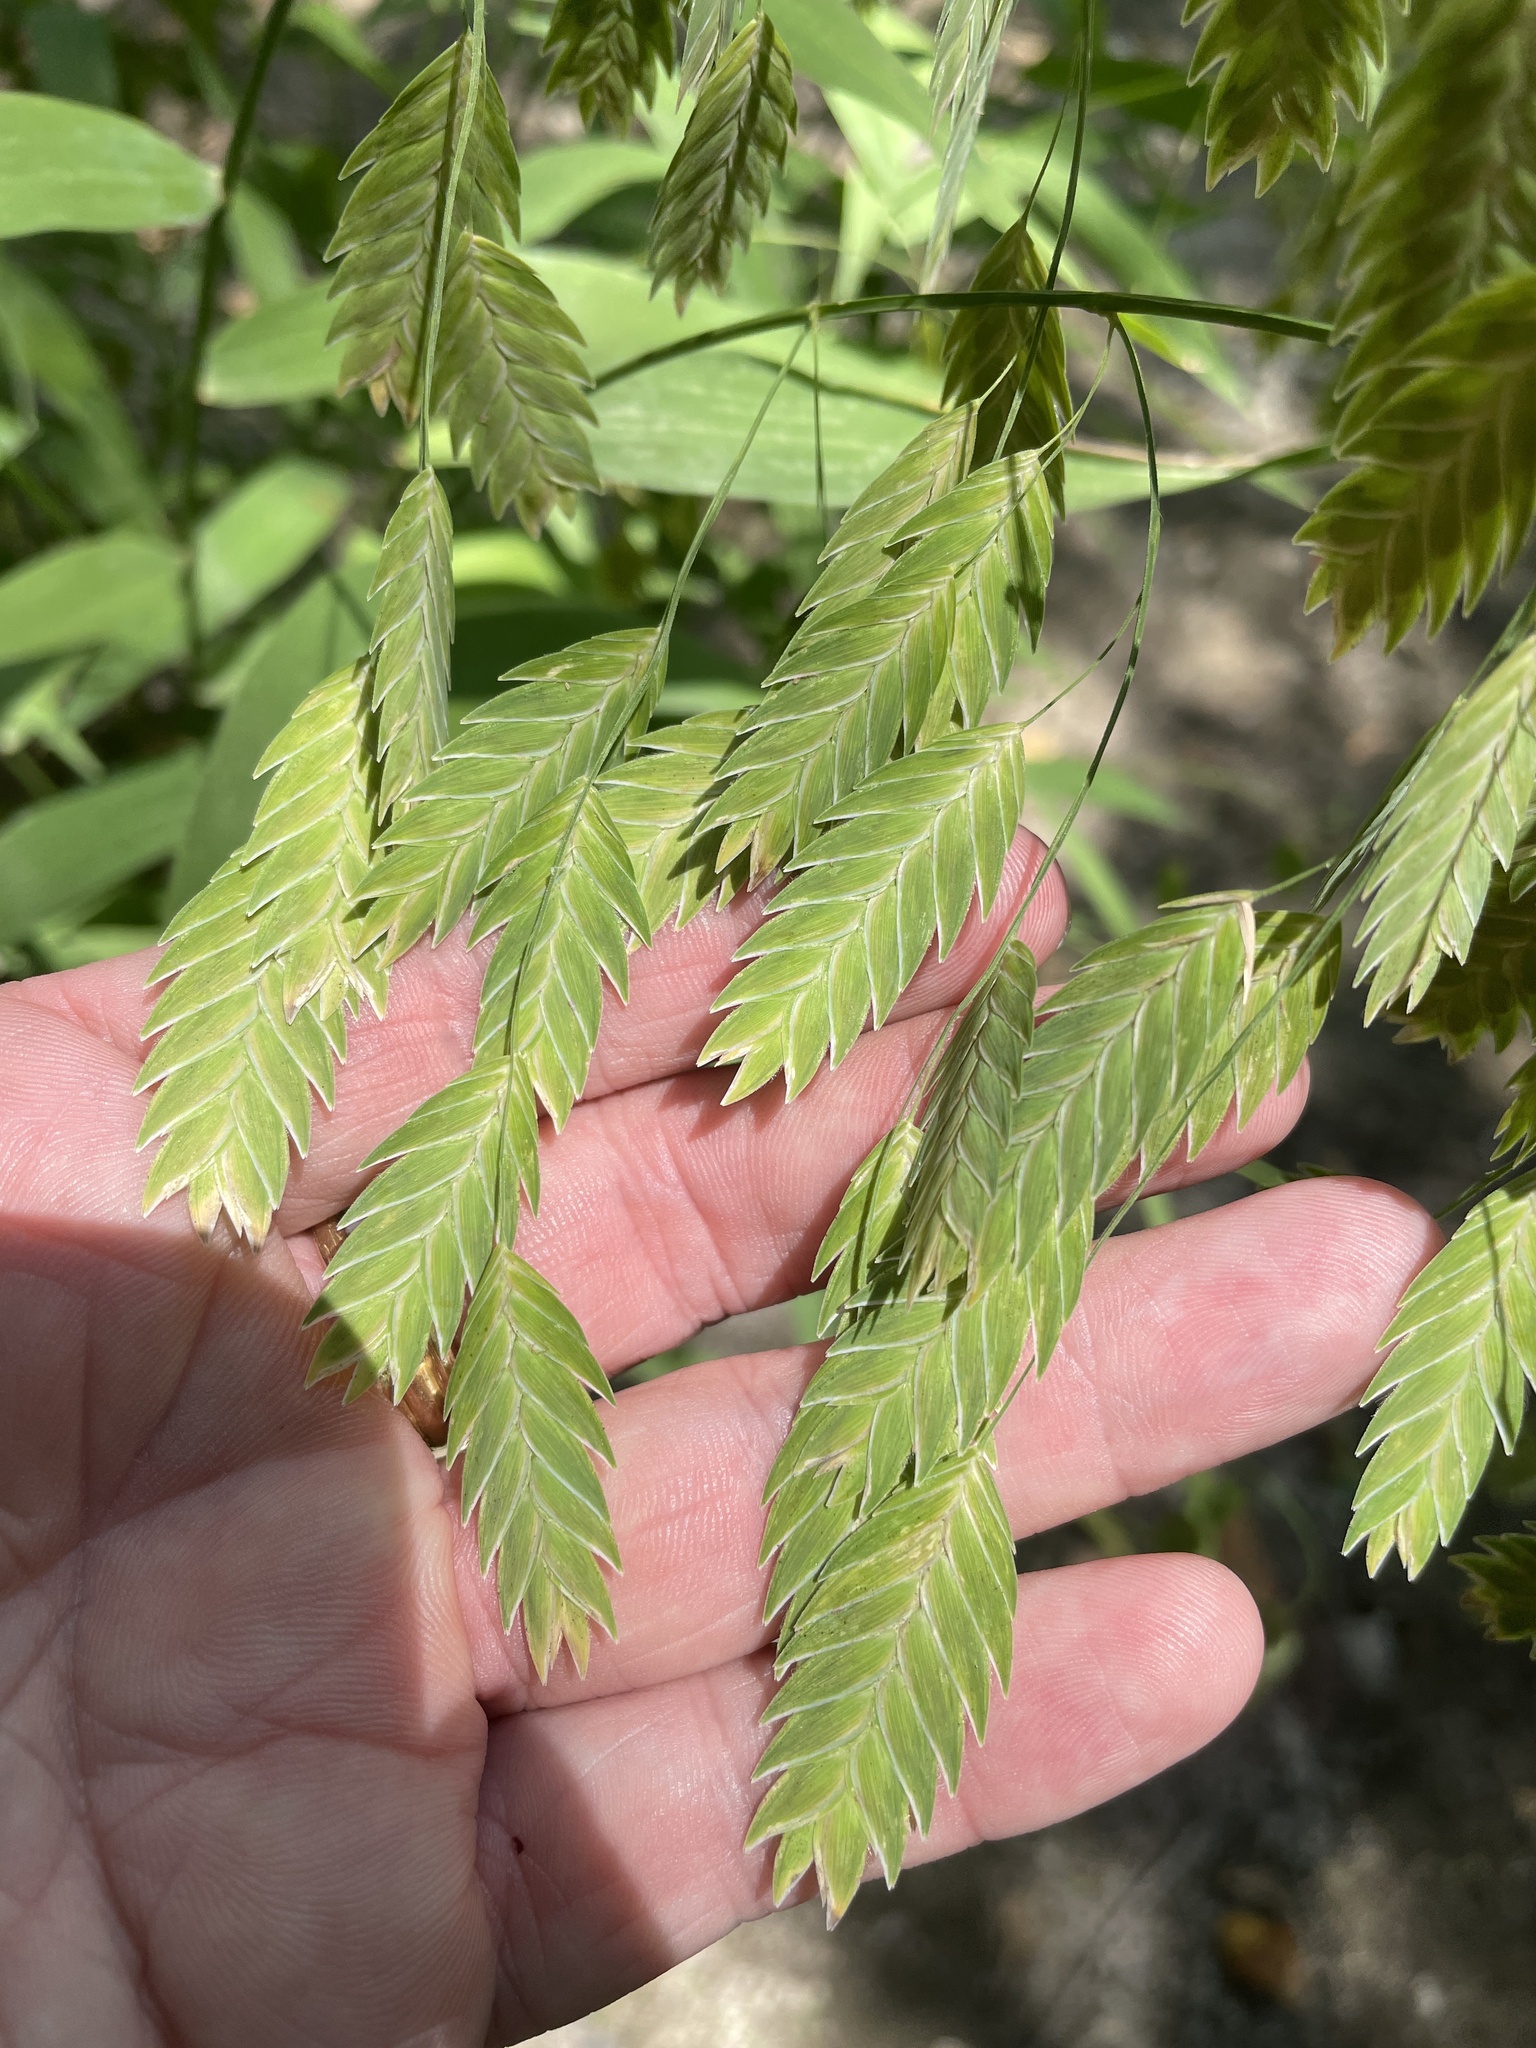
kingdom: Plantae
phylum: Tracheophyta
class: Liliopsida
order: Poales
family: Poaceae
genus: Chasmanthium
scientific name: Chasmanthium latifolium
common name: Broad-leaved chasmanthium
